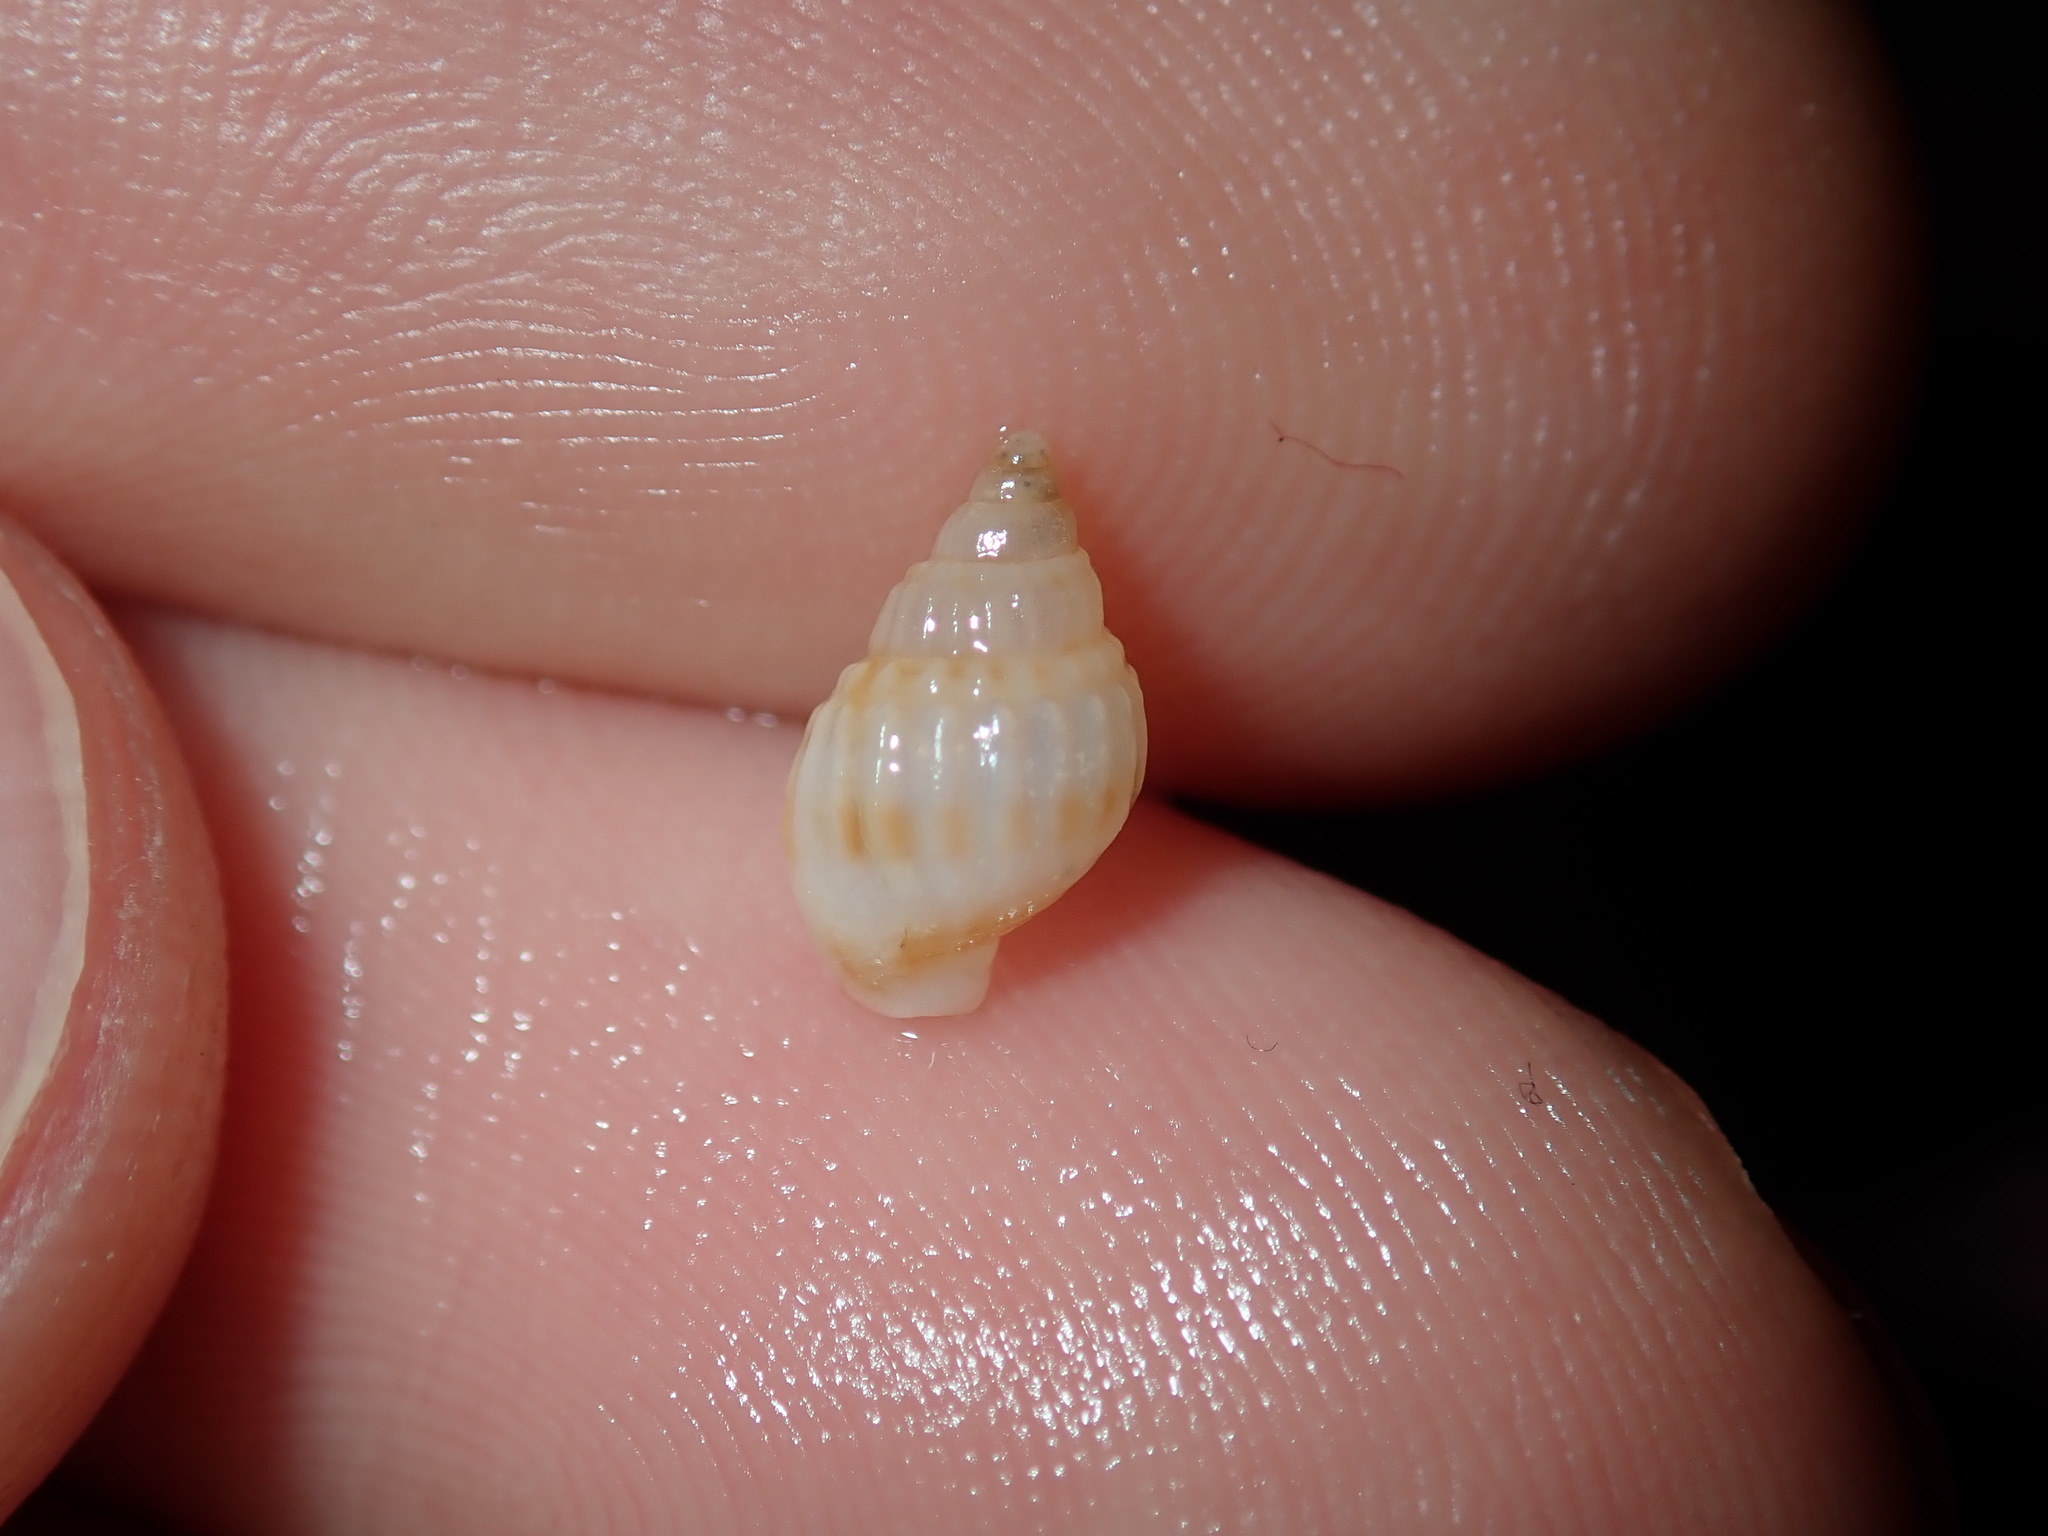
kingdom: Animalia
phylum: Mollusca
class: Gastropoda
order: Neogastropoda
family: Nassariidae
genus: Nassarius
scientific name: Nassarius nigellus
